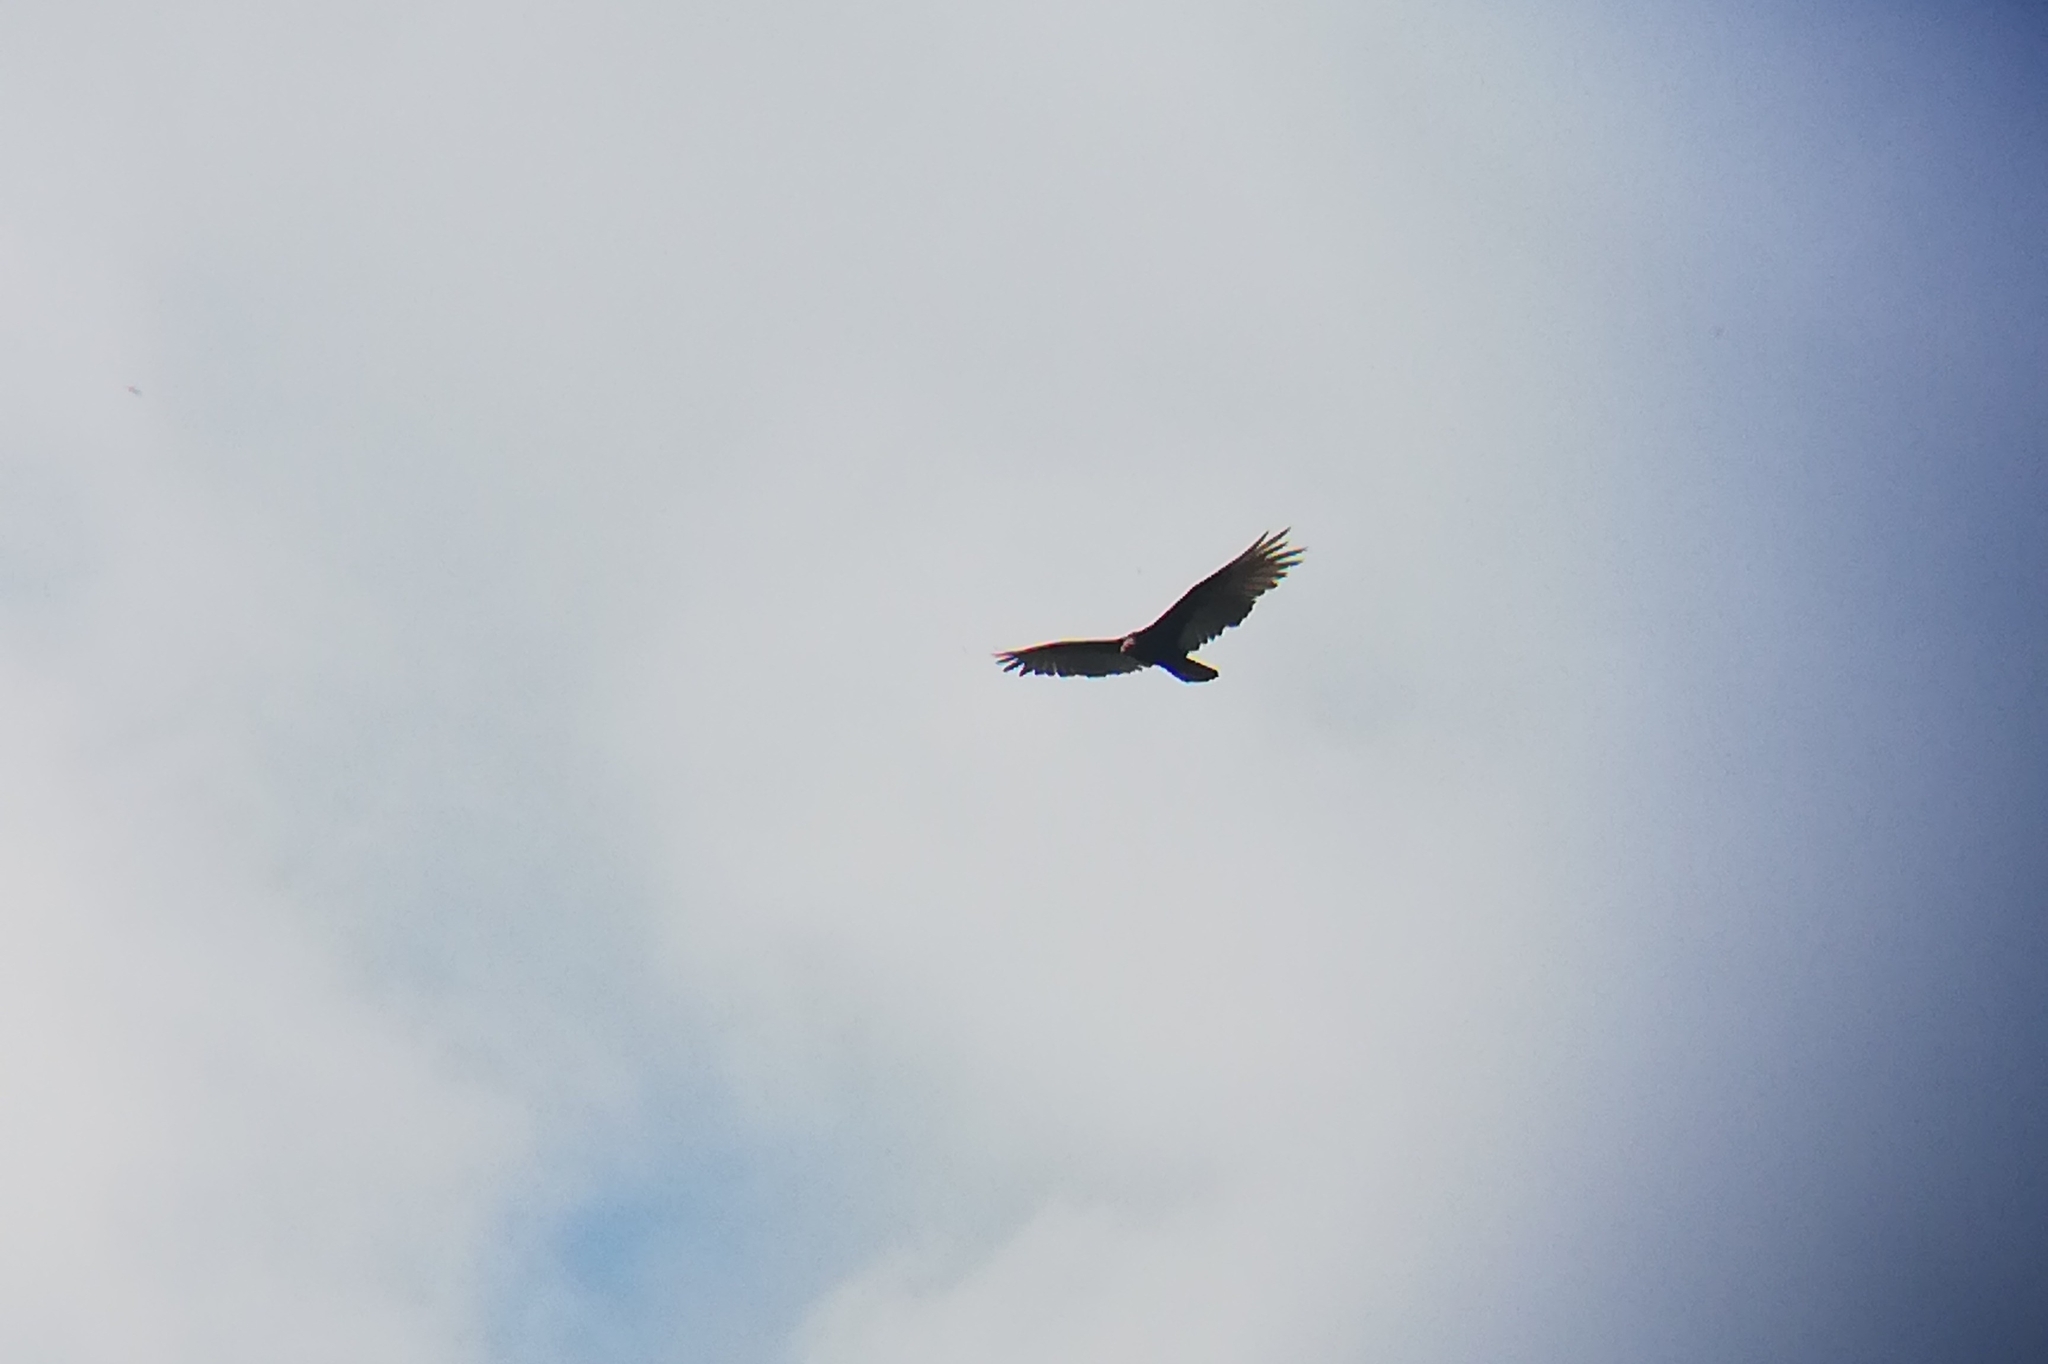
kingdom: Animalia
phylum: Chordata
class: Aves
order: Accipitriformes
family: Cathartidae
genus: Cathartes
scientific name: Cathartes aura
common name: Turkey vulture
